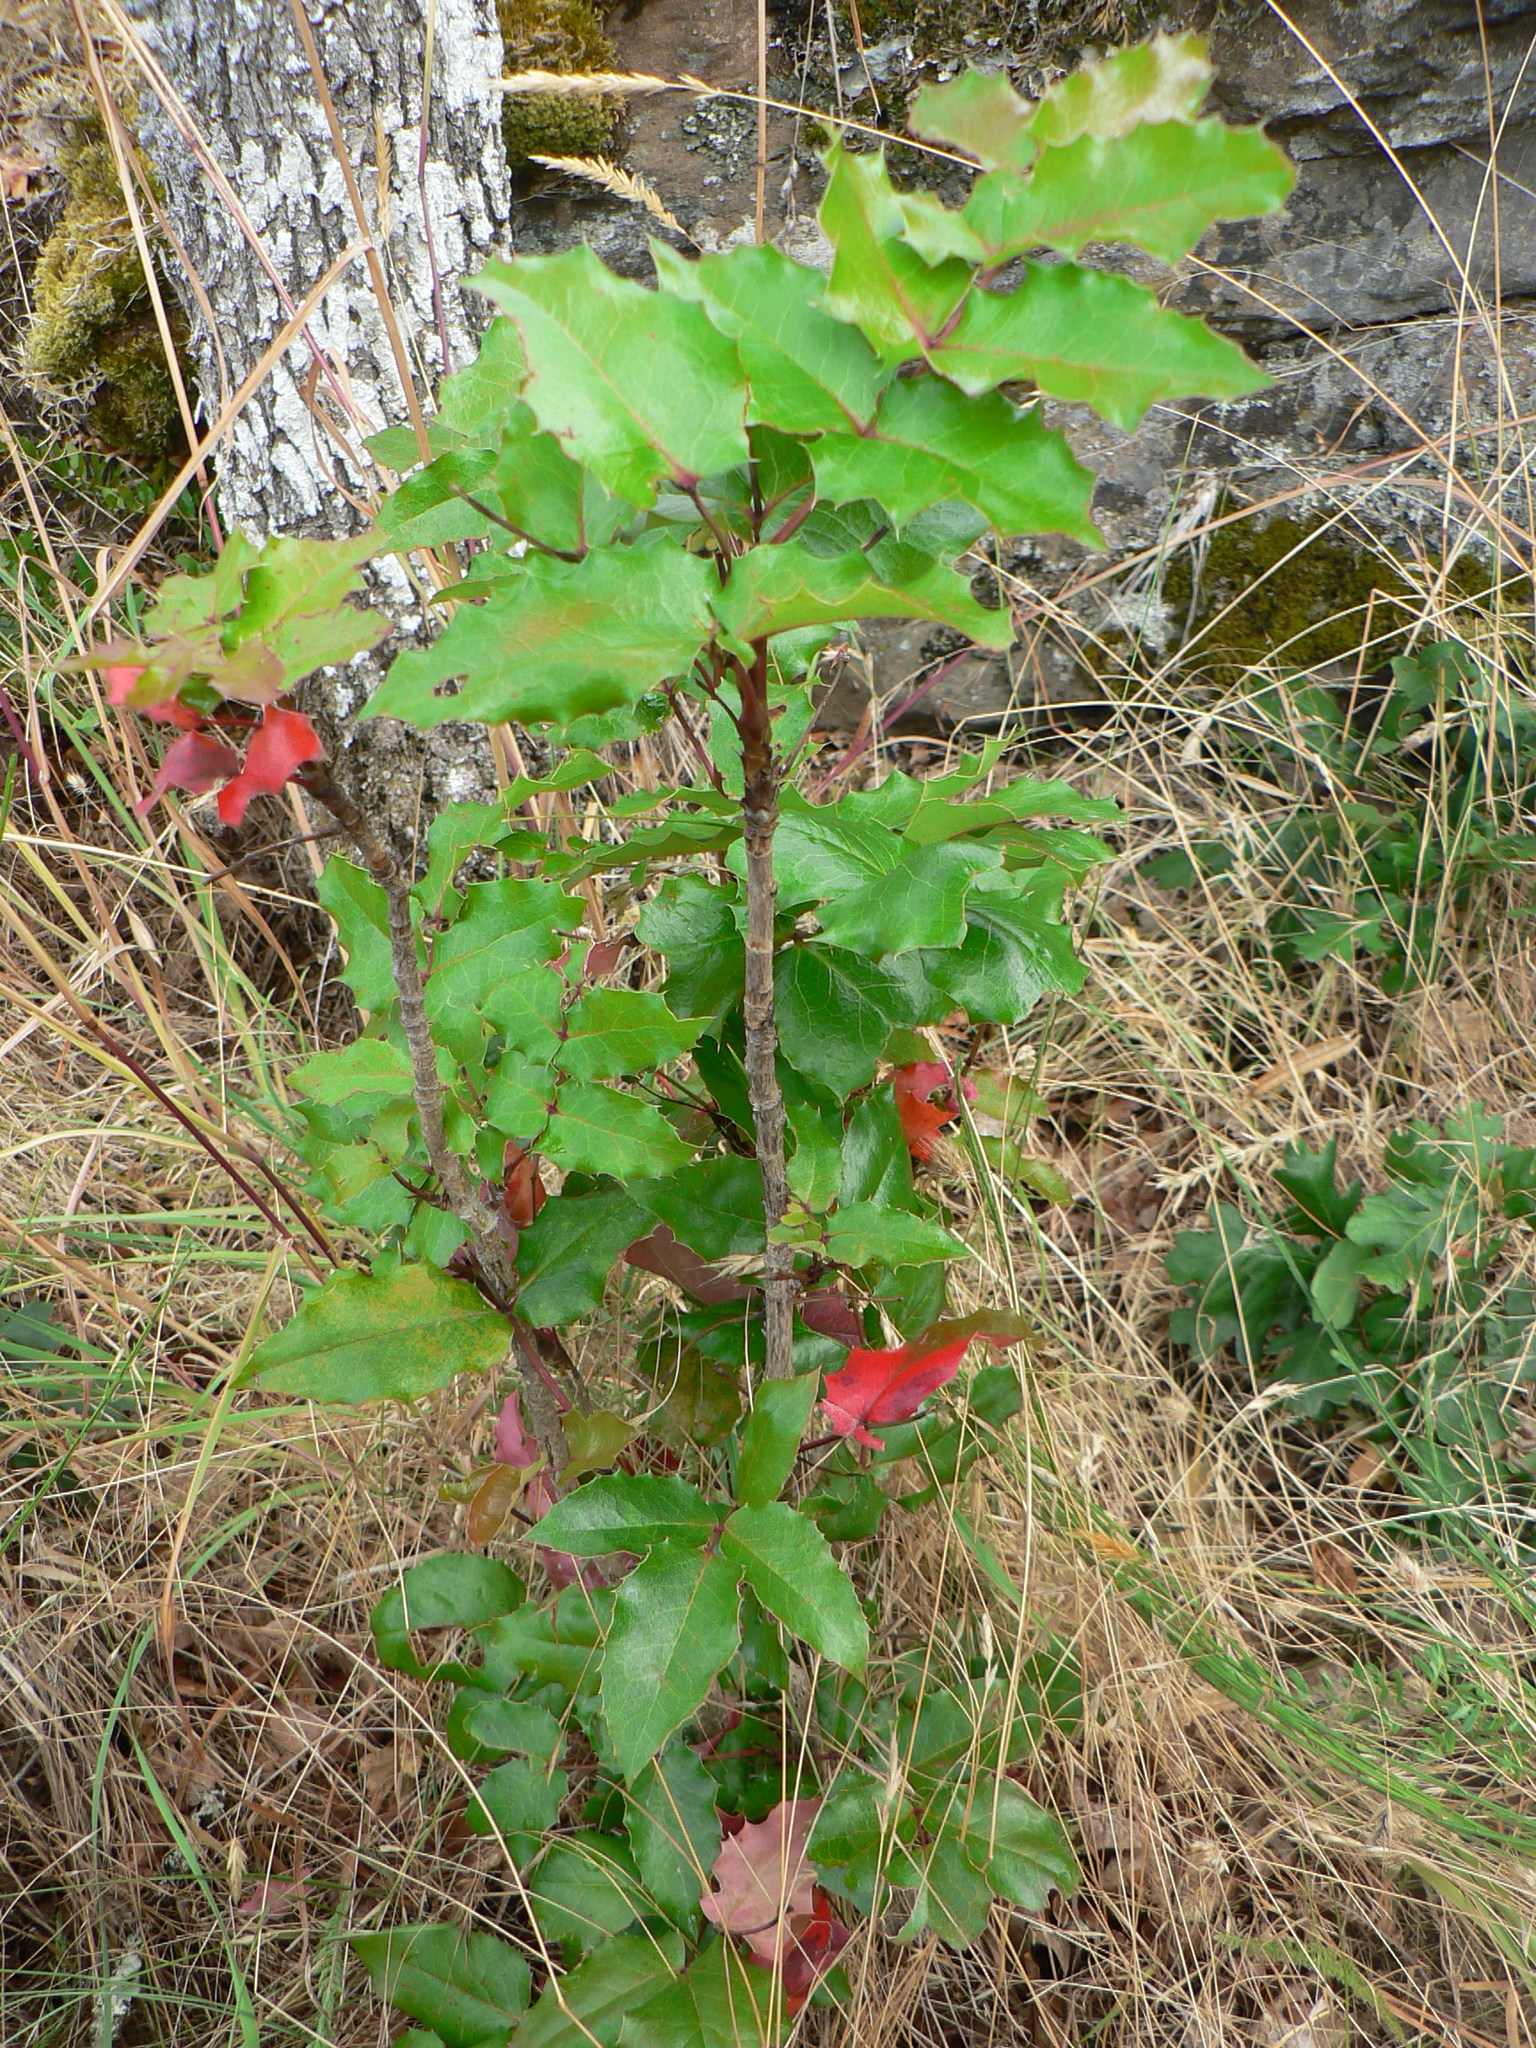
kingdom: Plantae
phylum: Tracheophyta
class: Magnoliopsida
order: Ranunculales
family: Berberidaceae
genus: Mahonia
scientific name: Mahonia aquifolium
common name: Oregon-grape
